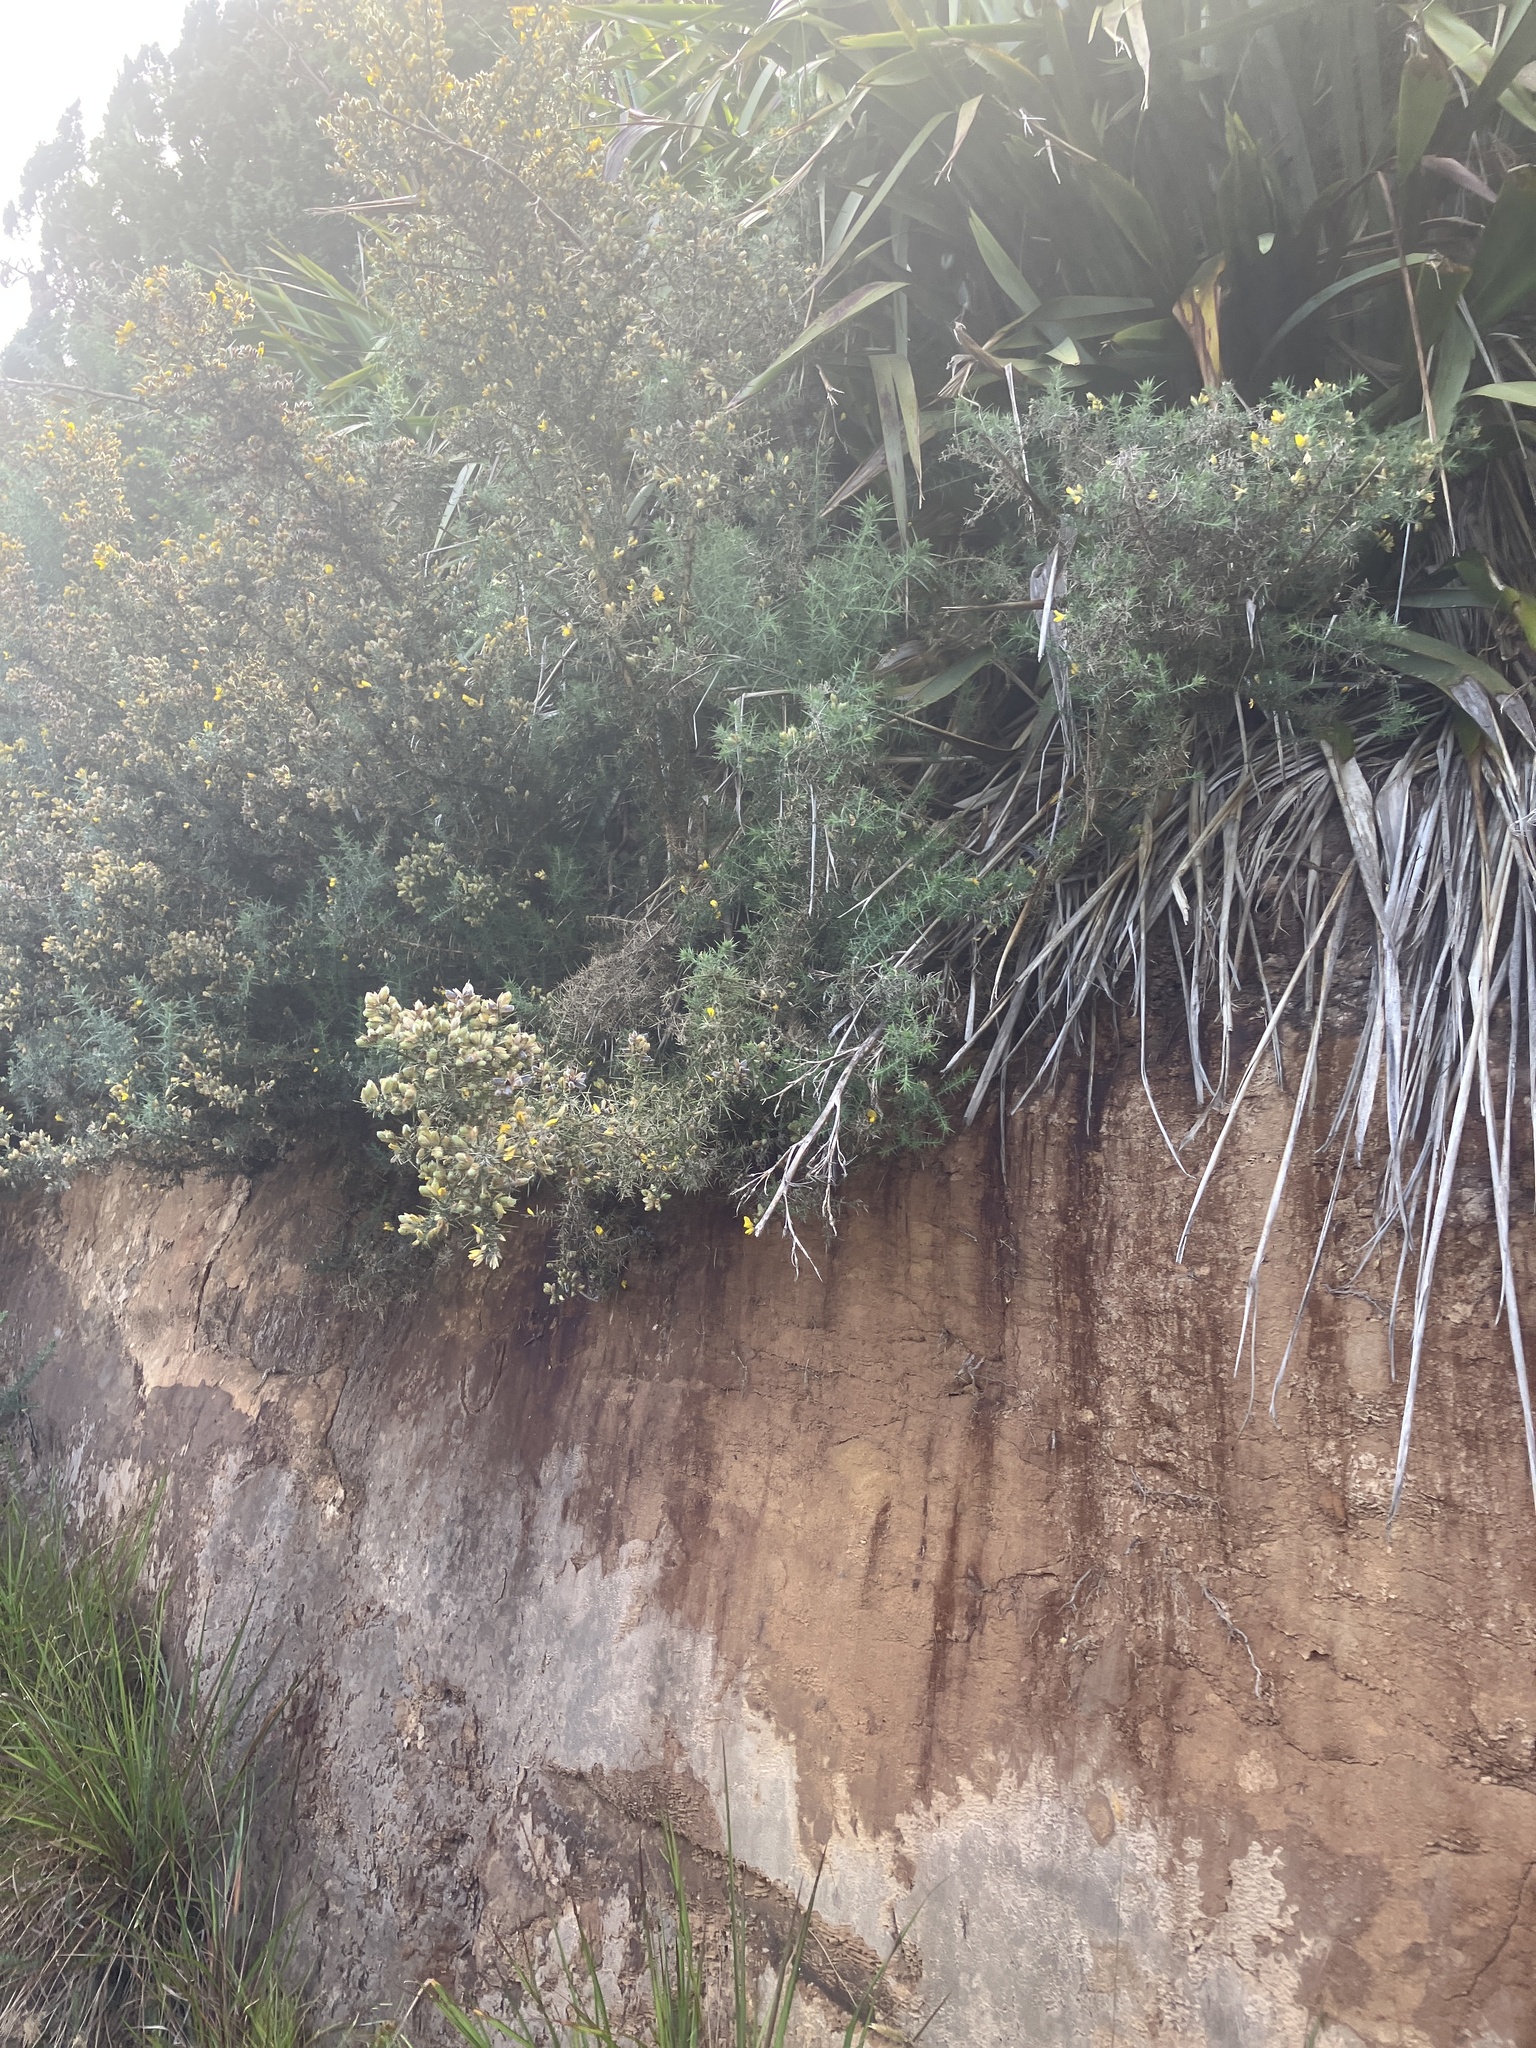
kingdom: Plantae
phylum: Tracheophyta
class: Magnoliopsida
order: Fabales
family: Fabaceae
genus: Ulex
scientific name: Ulex europaeus
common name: Common gorse
